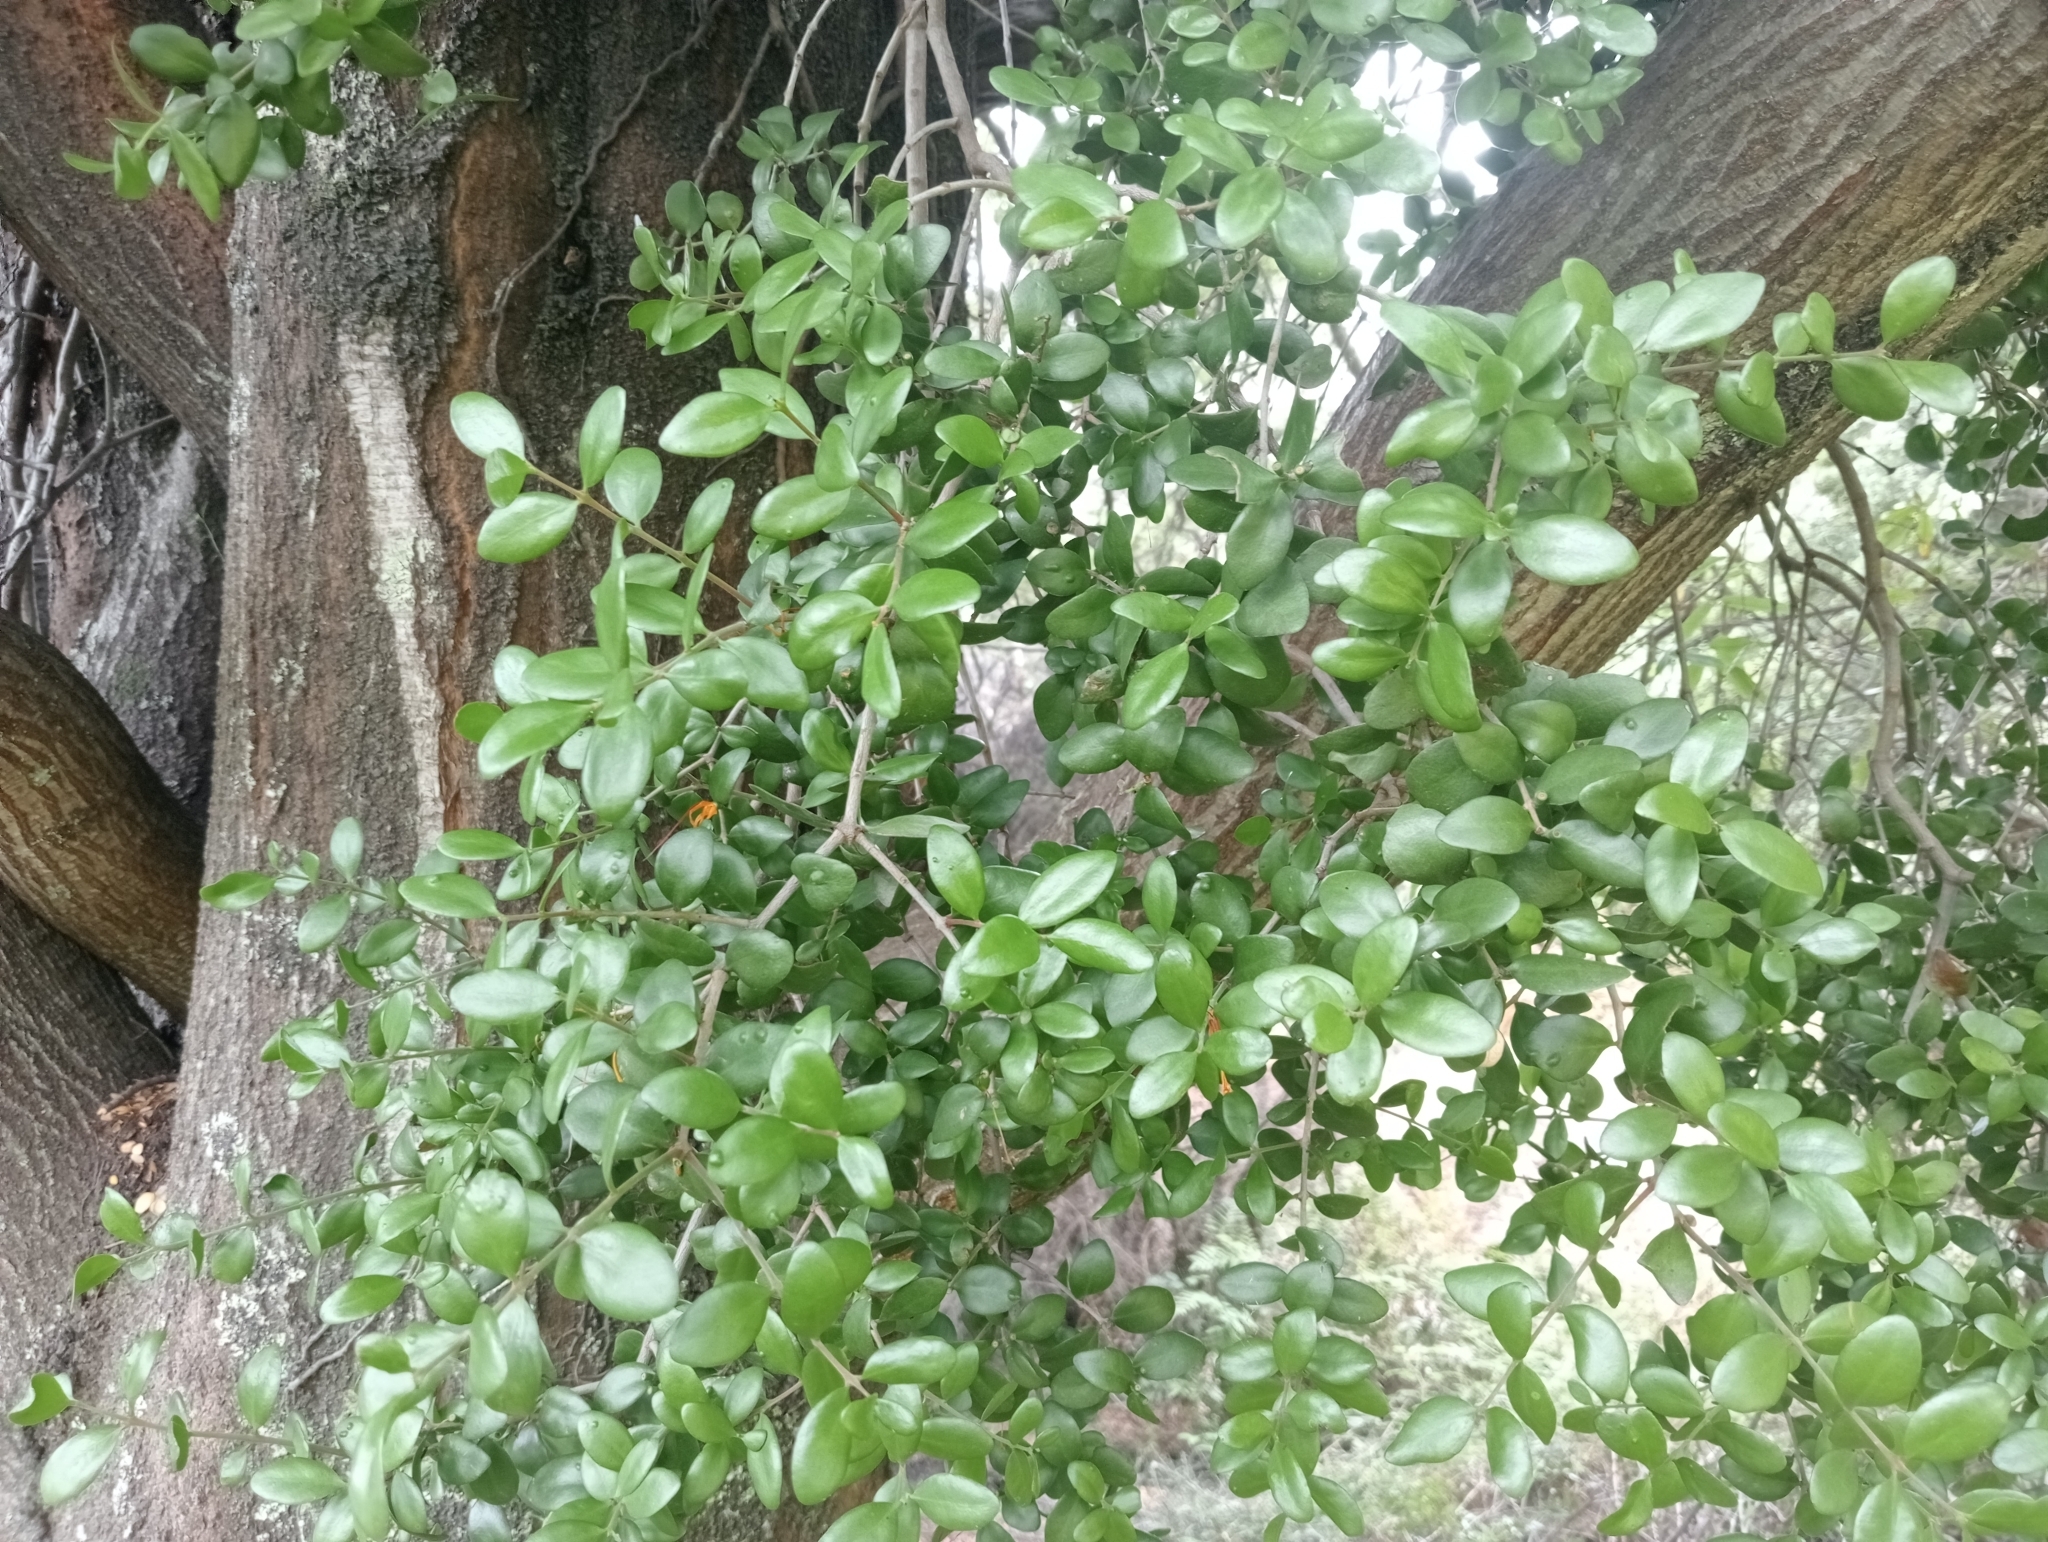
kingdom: Plantae
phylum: Tracheophyta
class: Magnoliopsida
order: Santalales
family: Loranthaceae
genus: Peraxilla
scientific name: Peraxilla tetrapetala
